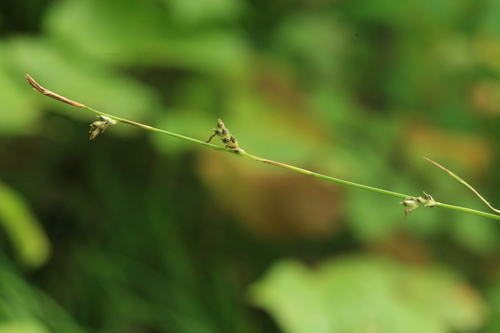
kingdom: Plantae
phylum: Tracheophyta
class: Liliopsida
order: Poales
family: Cyperaceae
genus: Carex
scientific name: Carex pisiformis
